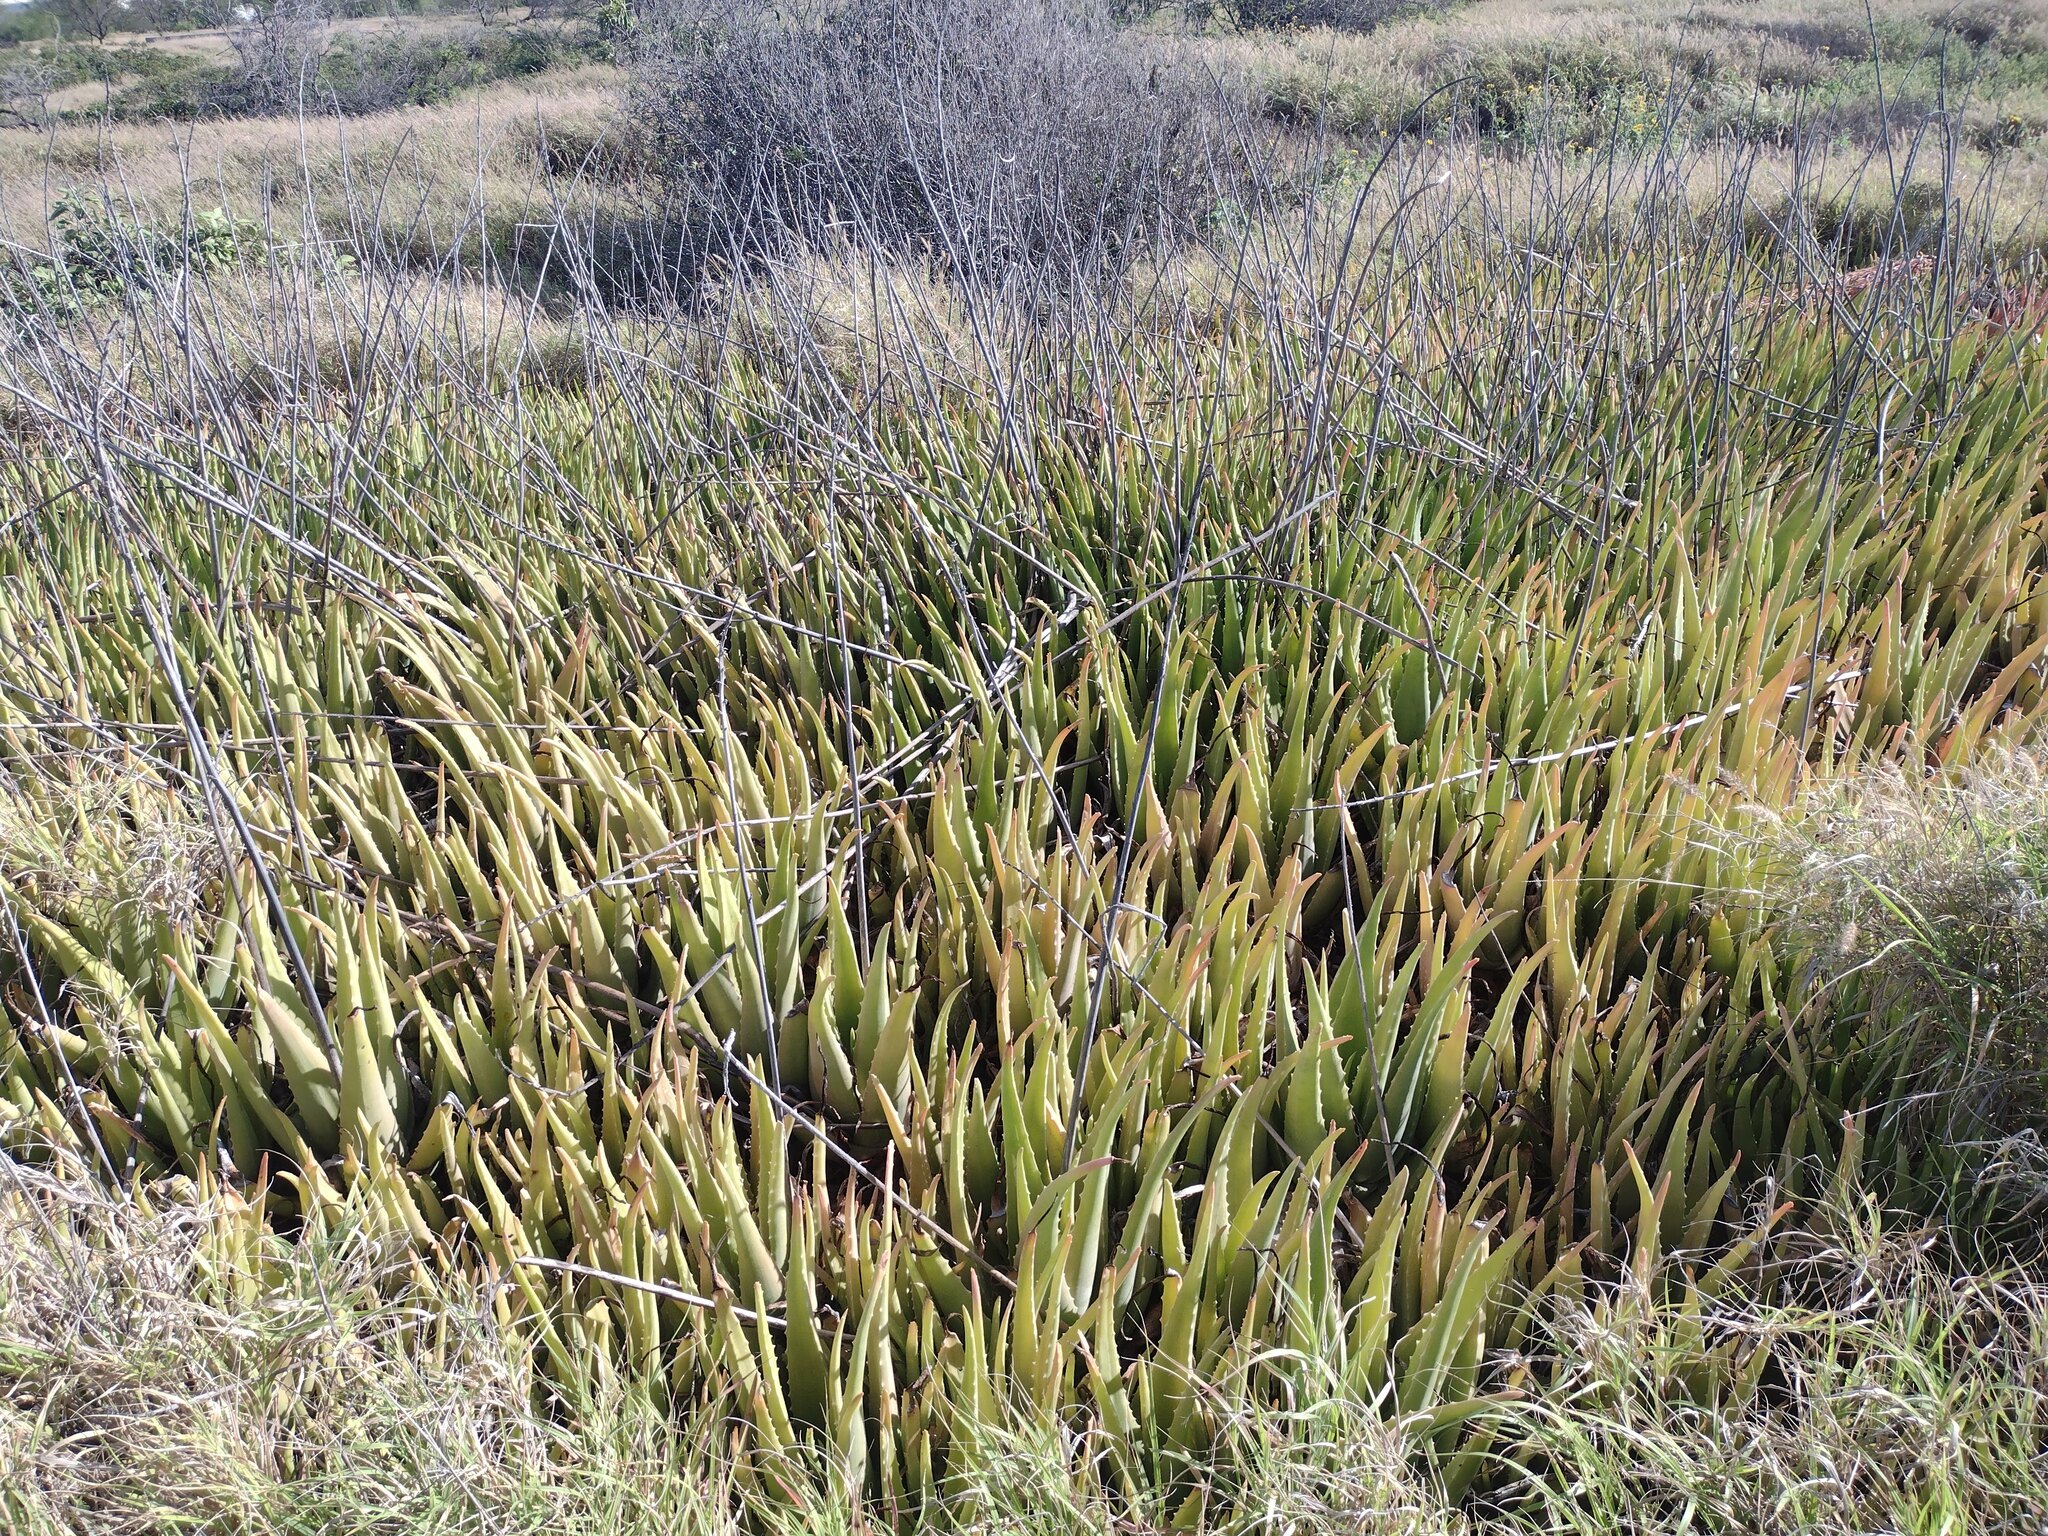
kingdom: Plantae
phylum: Tracheophyta
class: Liliopsida
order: Asparagales
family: Asphodelaceae
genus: Aloe
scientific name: Aloe vera
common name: Barbados aloe
